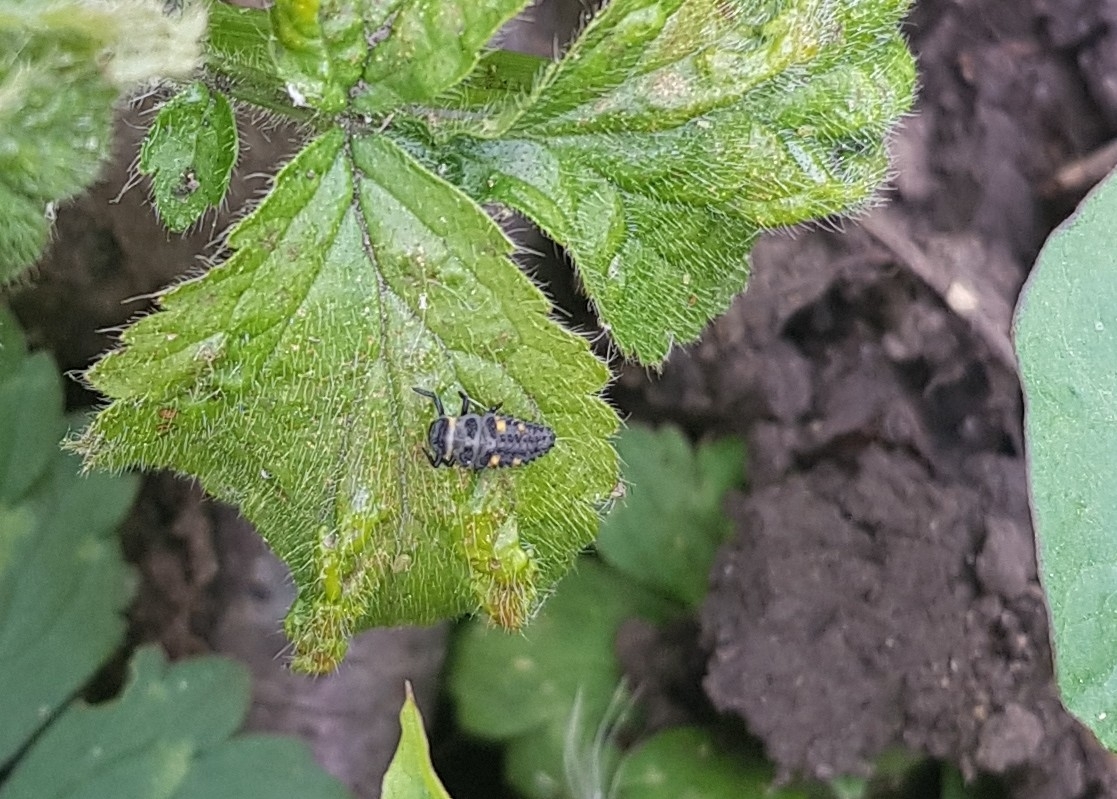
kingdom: Animalia
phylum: Arthropoda
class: Insecta
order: Coleoptera
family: Coccinellidae
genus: Coccinella
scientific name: Coccinella septempunctata
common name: Sevenspotted lady beetle
